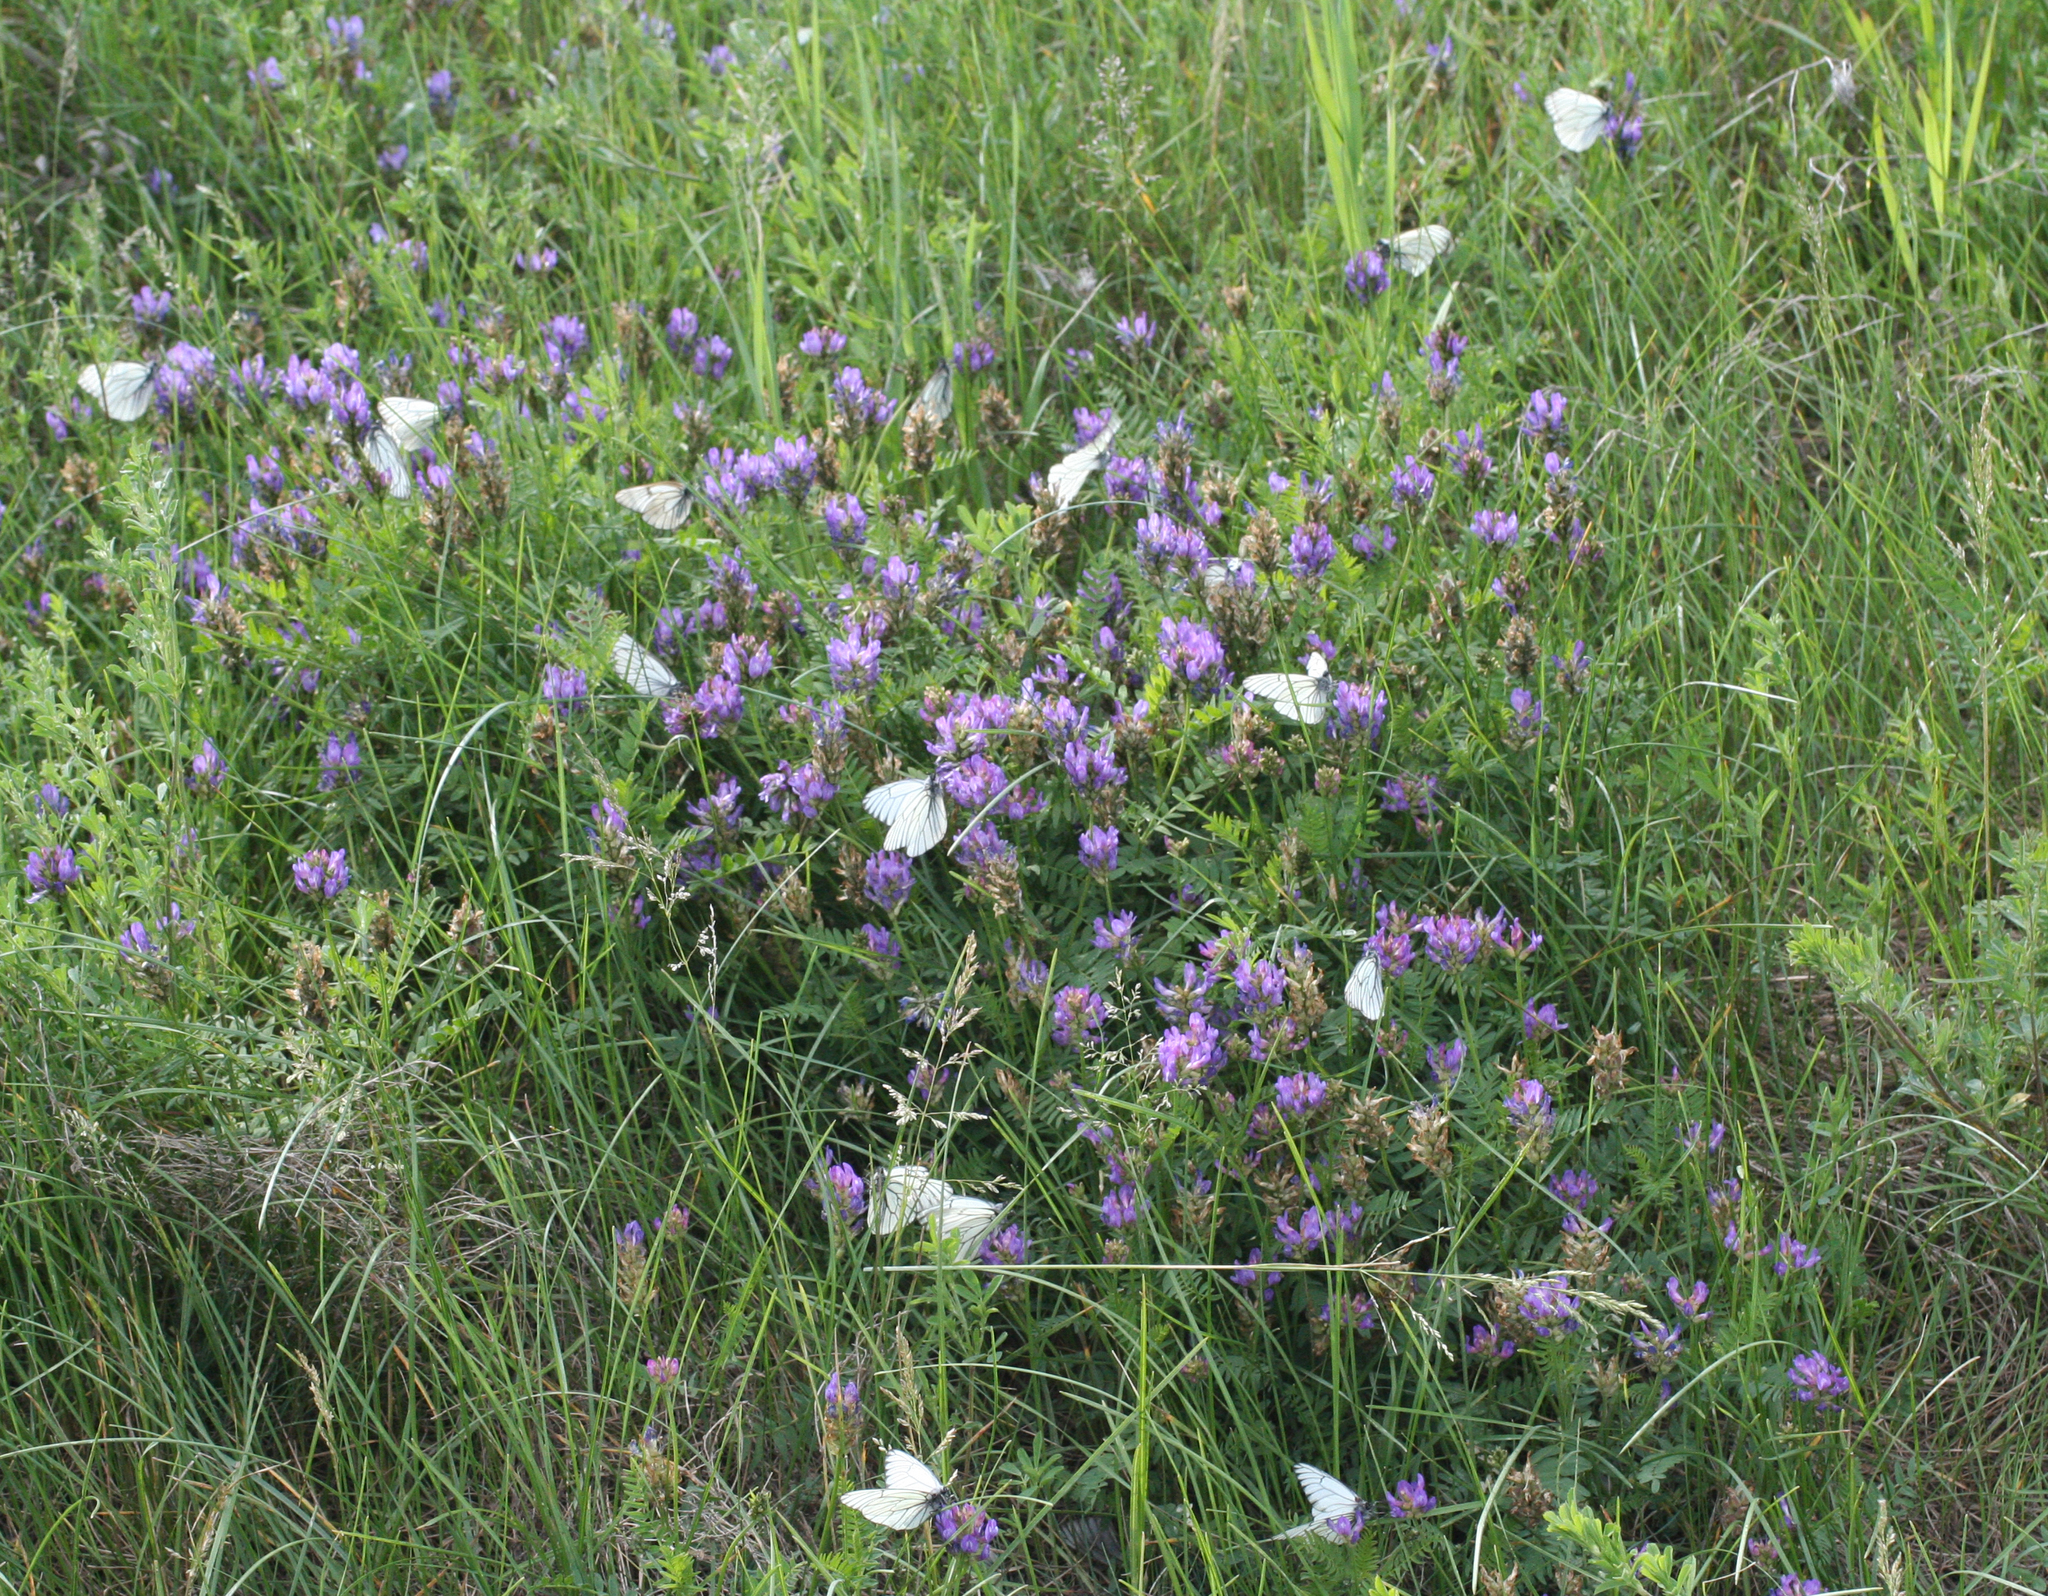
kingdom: Animalia
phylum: Arthropoda
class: Insecta
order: Lepidoptera
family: Pieridae
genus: Aporia
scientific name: Aporia crataegi
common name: Black-veined white
